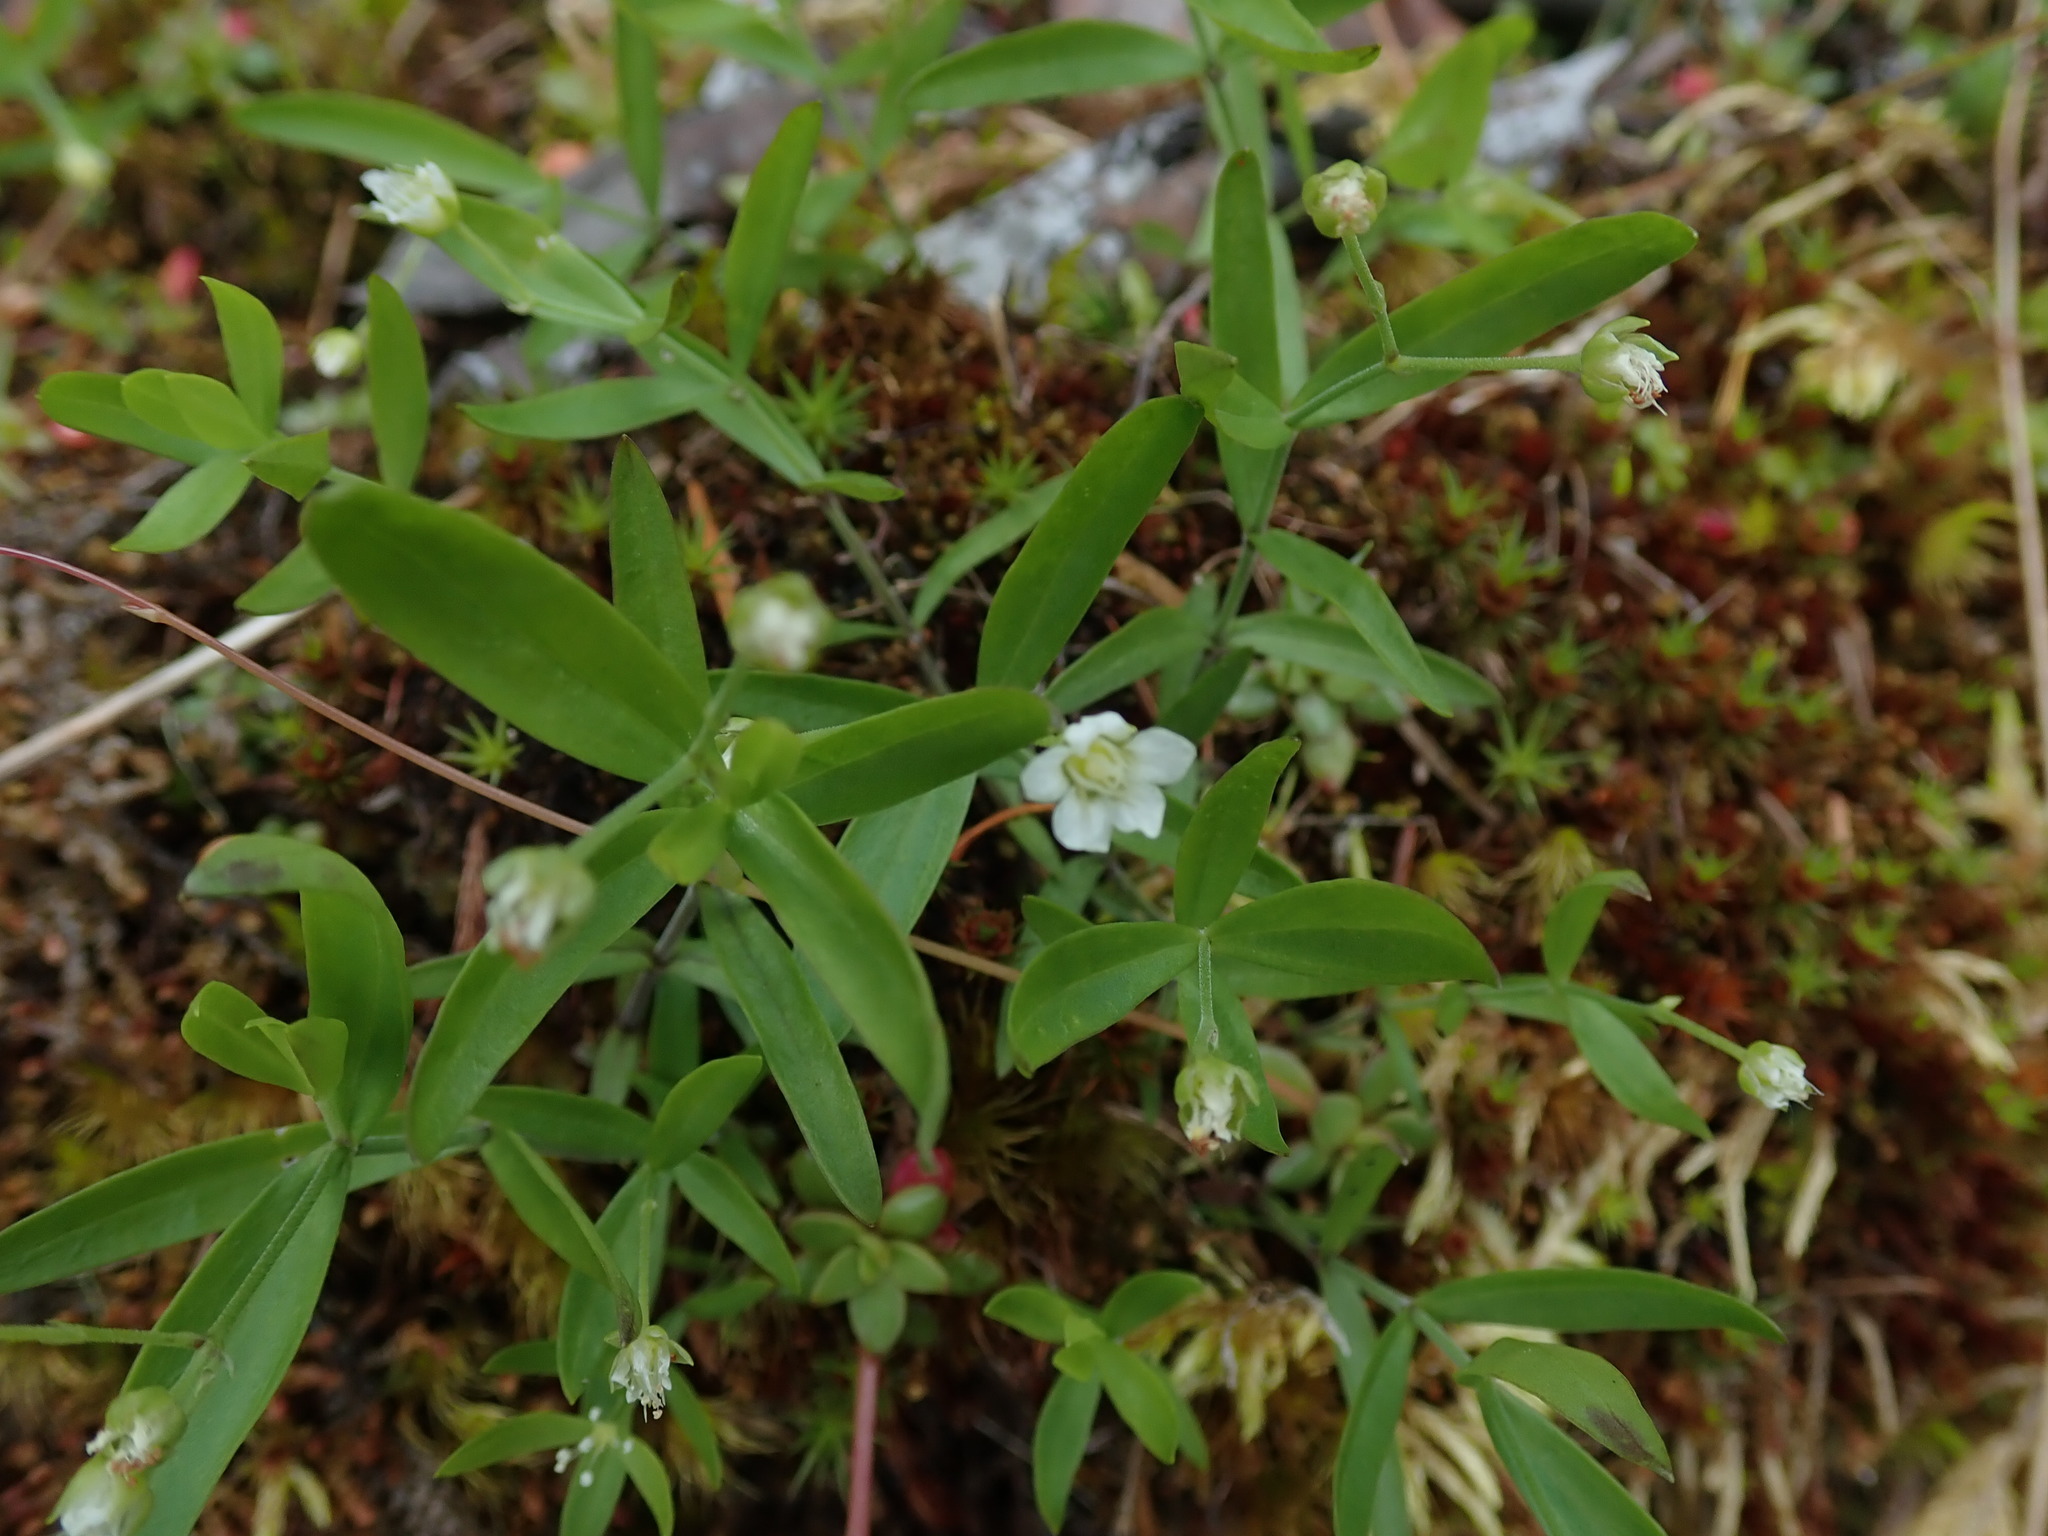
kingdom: Plantae
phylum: Tracheophyta
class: Magnoliopsida
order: Caryophyllales
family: Caryophyllaceae
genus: Moehringia
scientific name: Moehringia macrophylla
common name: Big-leaf sandwort
